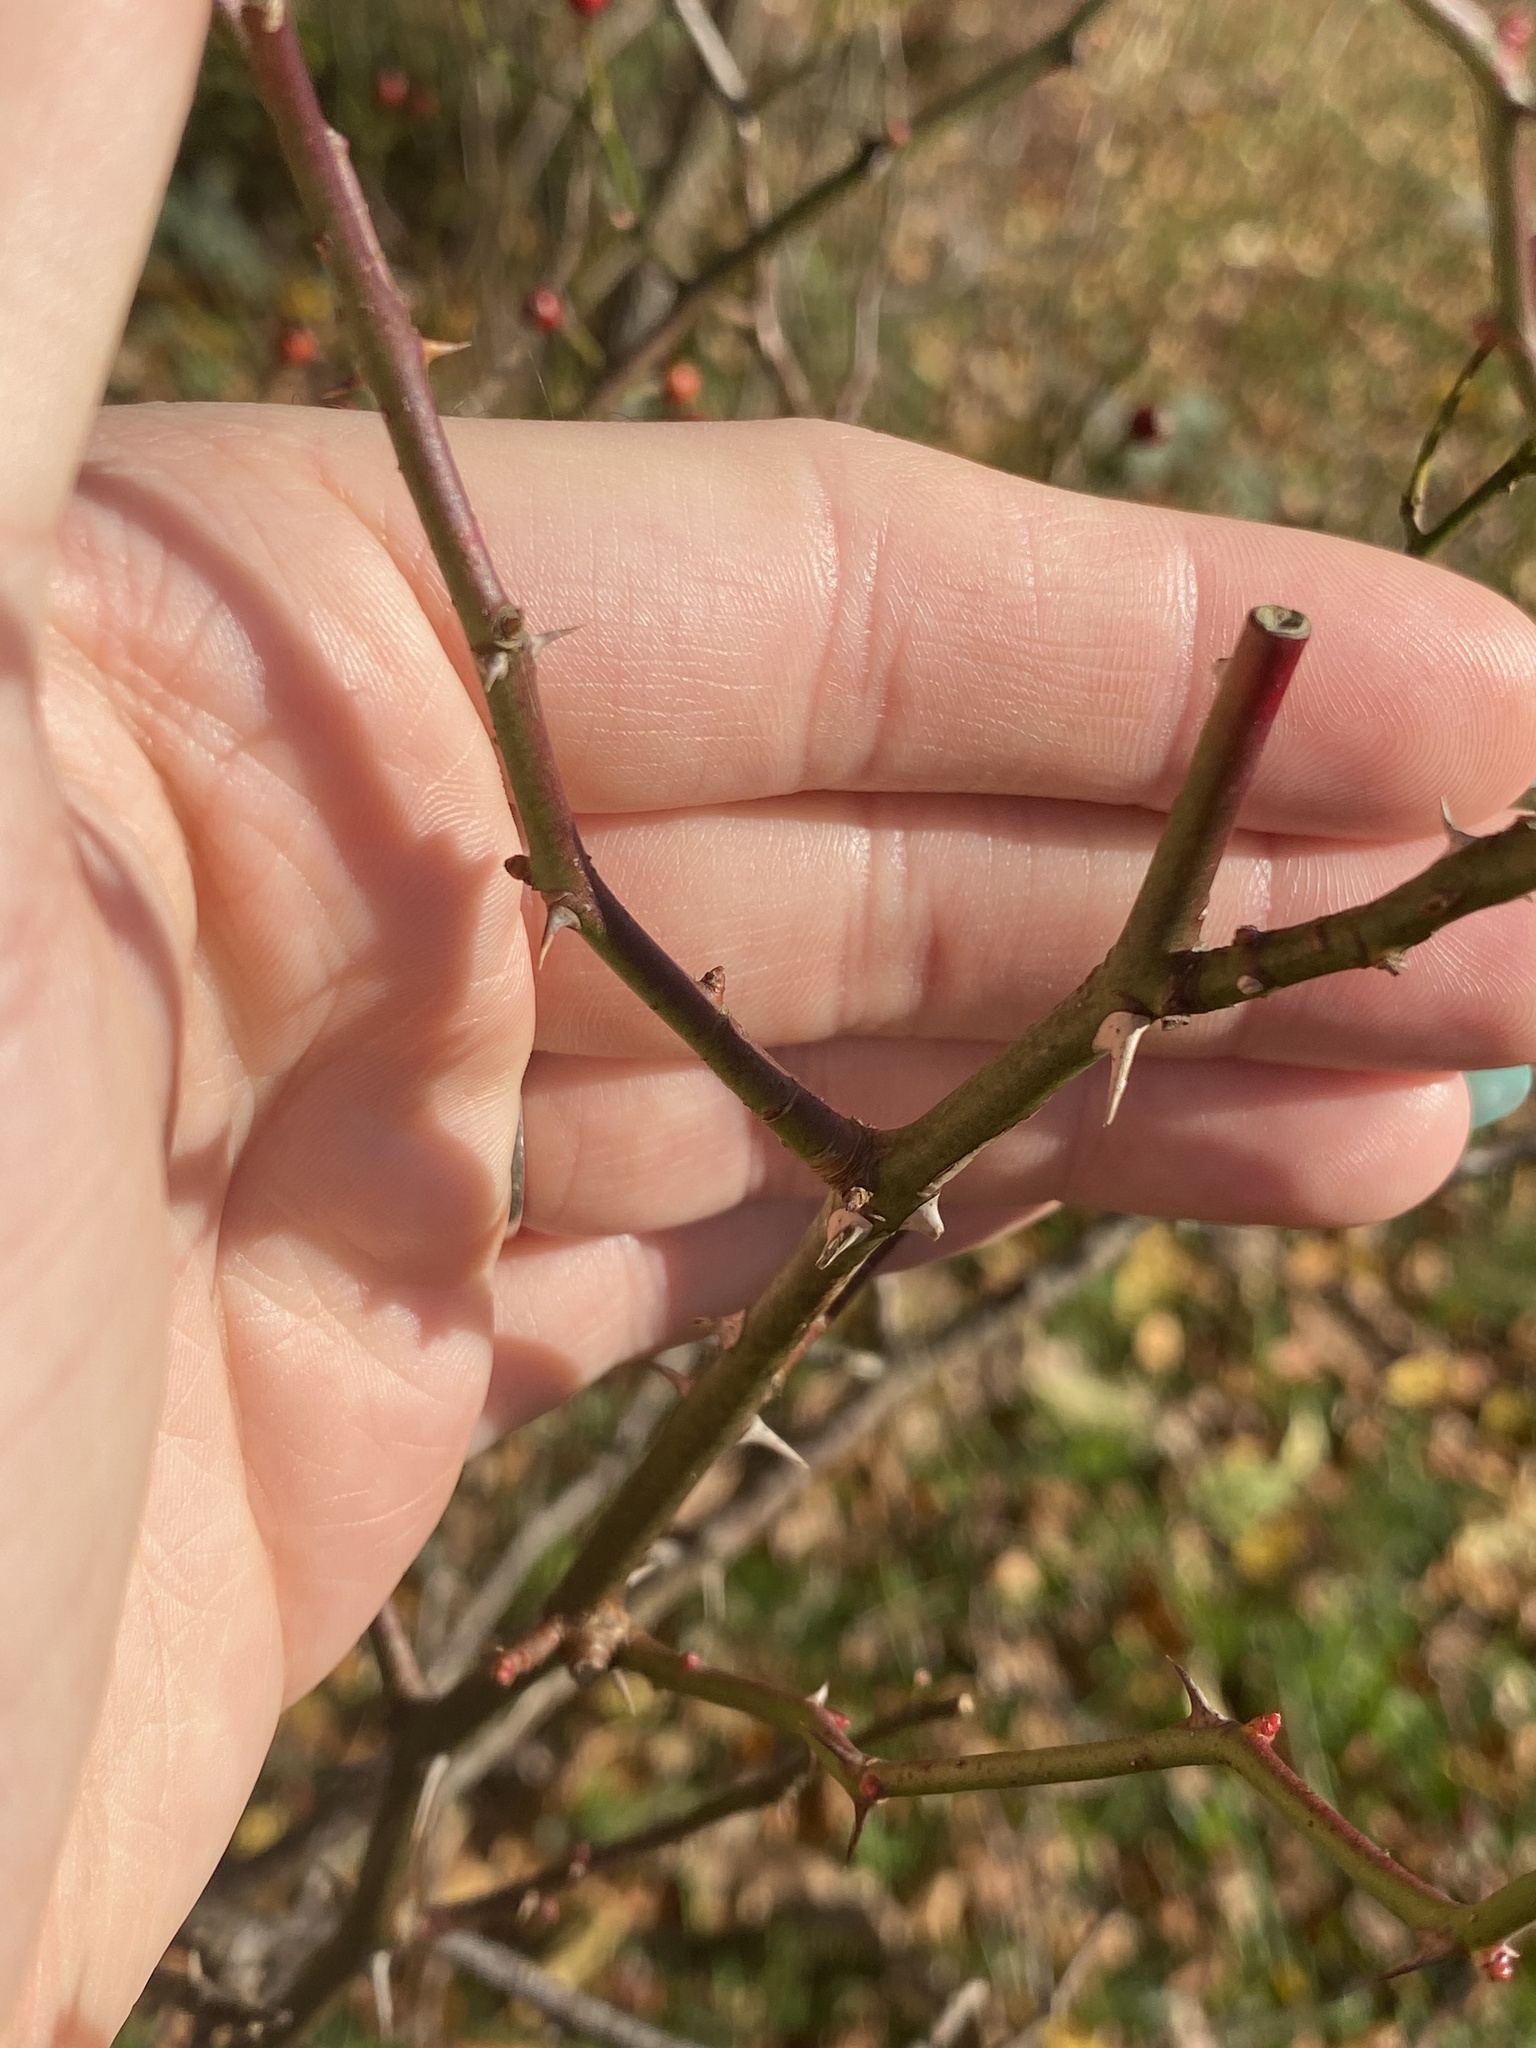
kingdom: Plantae
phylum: Tracheophyta
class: Magnoliopsida
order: Rosales
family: Rosaceae
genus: Rosa
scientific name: Rosa multiflora
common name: Multiflora rose
